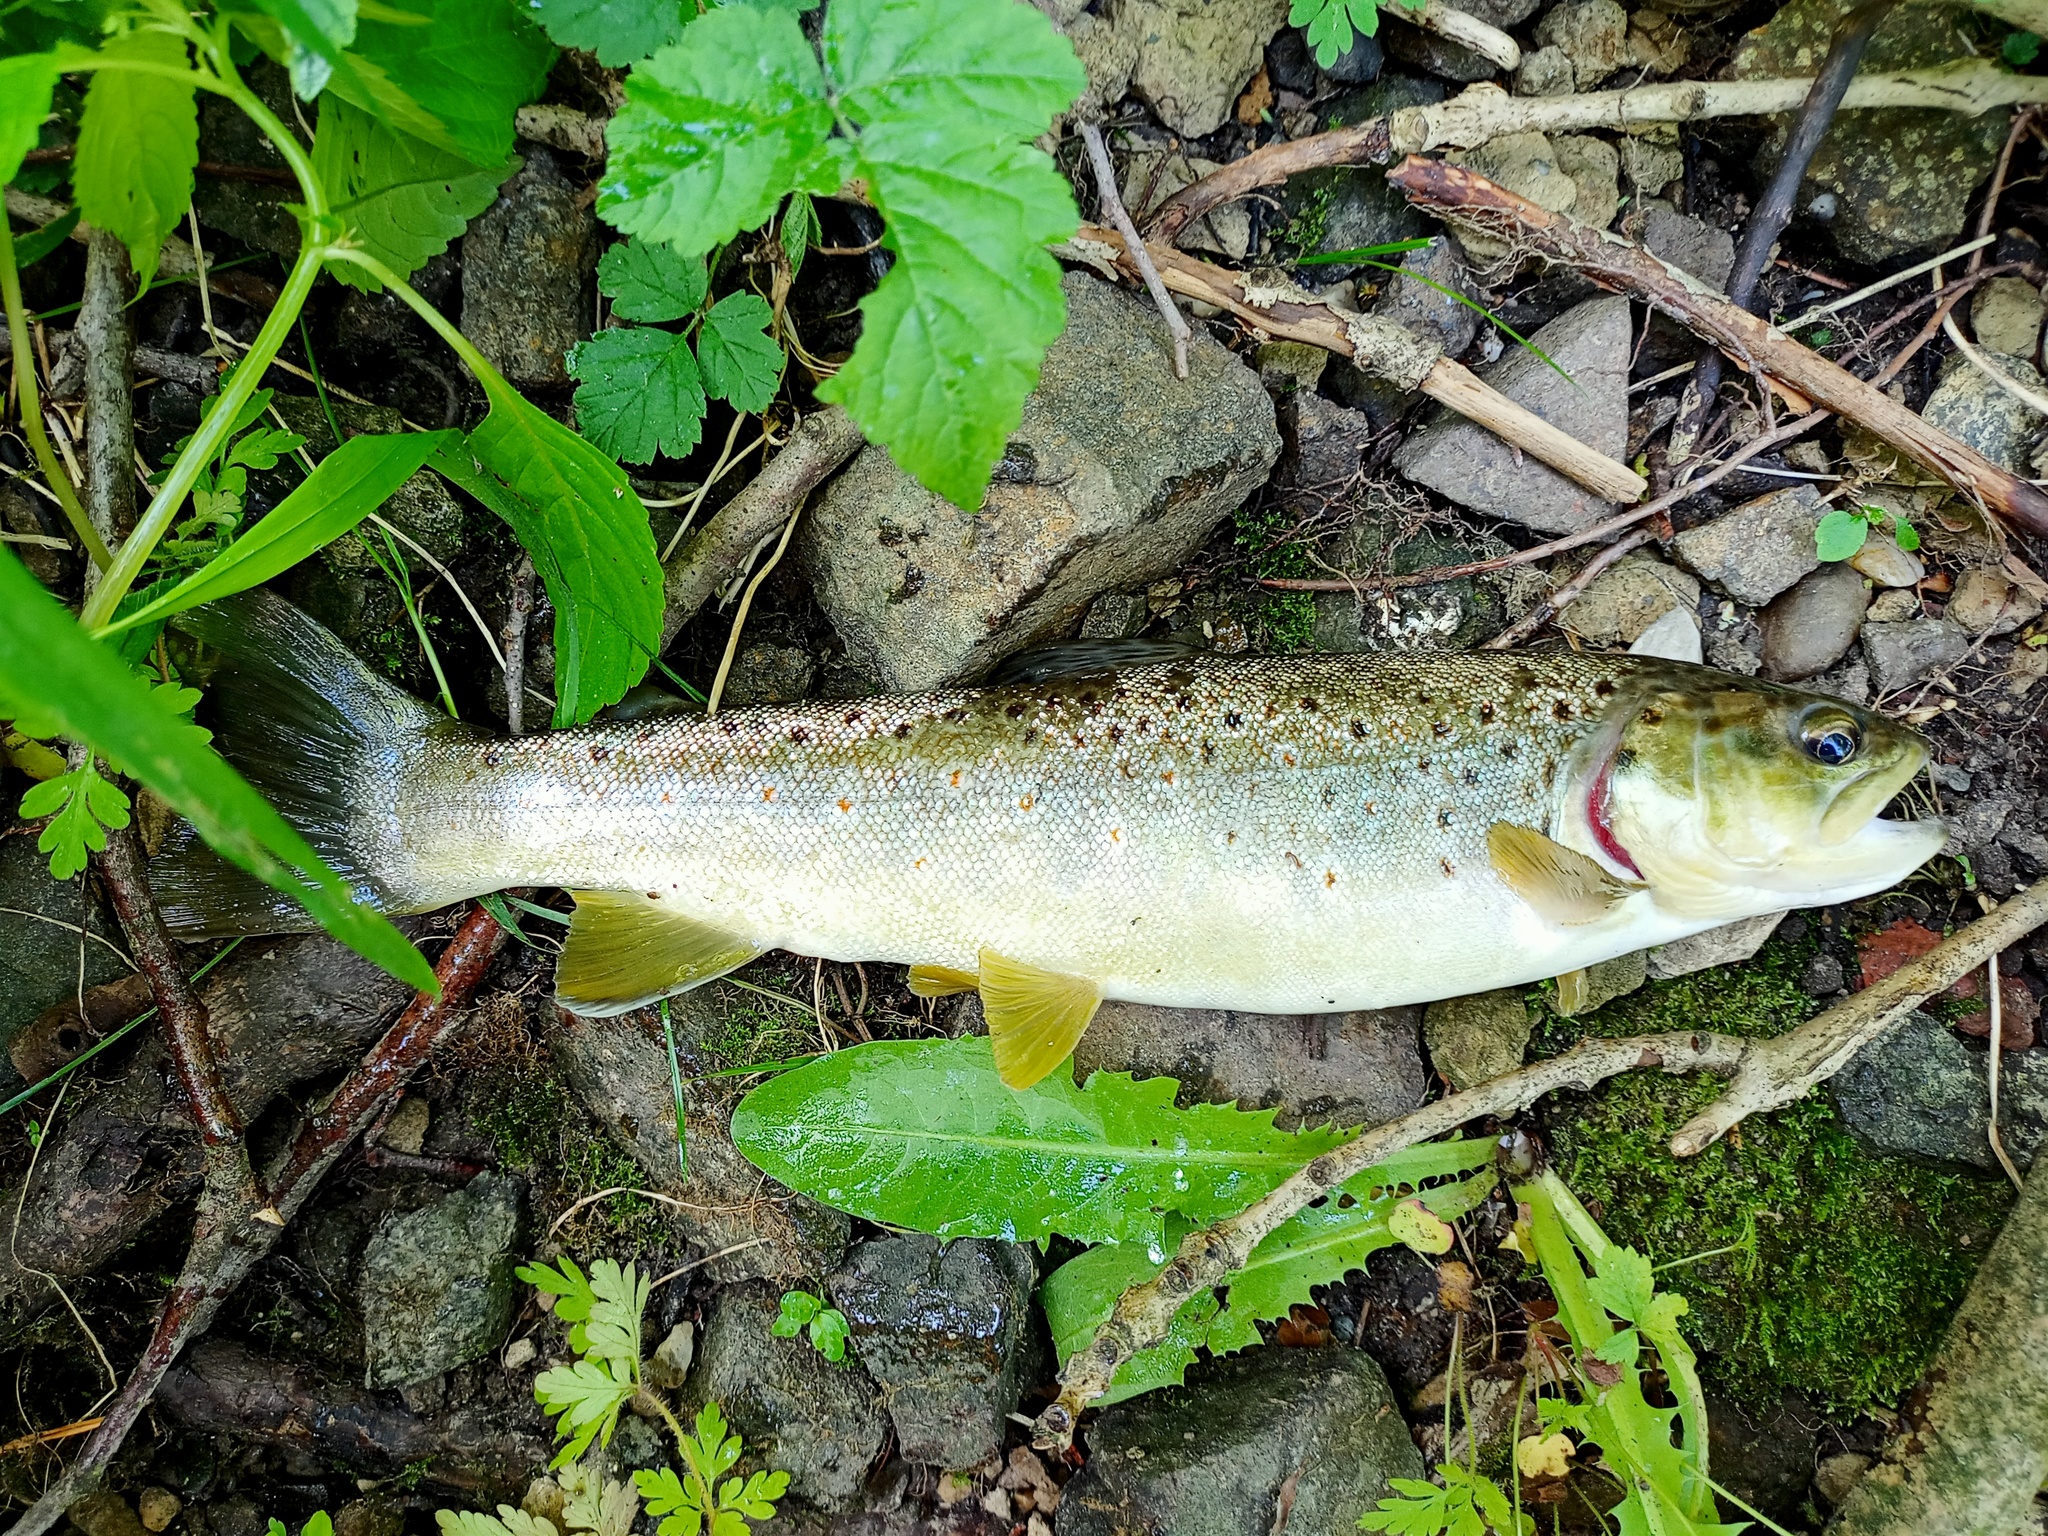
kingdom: Animalia
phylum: Chordata
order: Salmoniformes
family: Salmonidae
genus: Salmo
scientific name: Salmo trutta
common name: Brown trout
